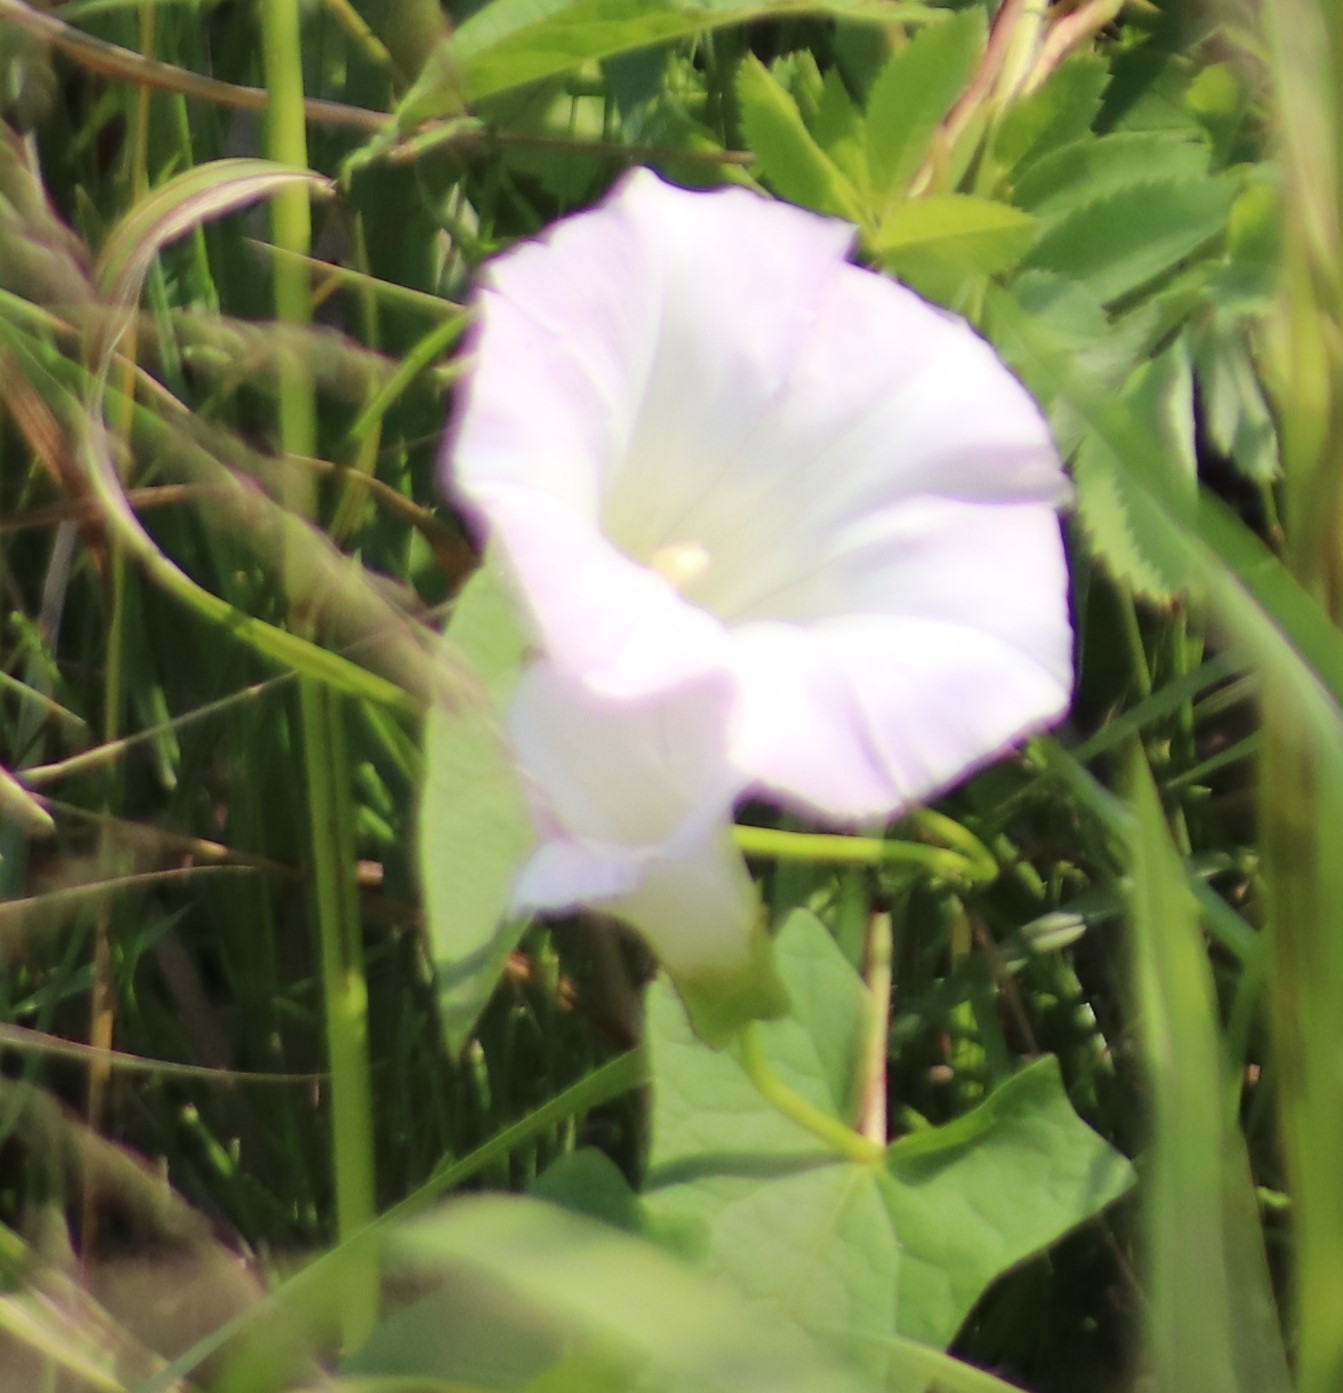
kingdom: Plantae
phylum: Tracheophyta
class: Magnoliopsida
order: Solanales
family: Convolvulaceae
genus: Calystegia
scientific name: Calystegia sepium
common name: Hedge bindweed
